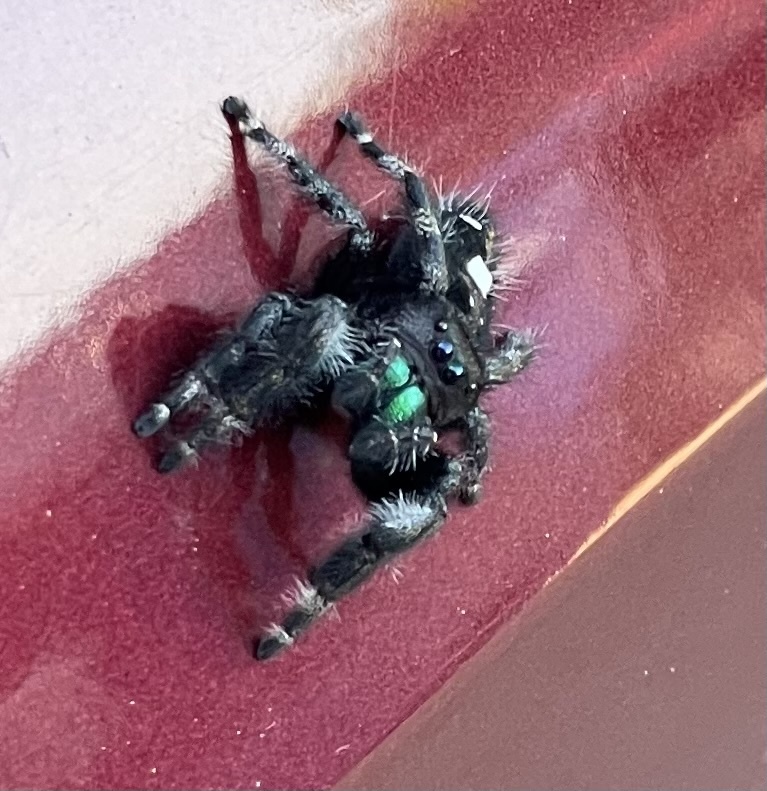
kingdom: Animalia
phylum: Arthropoda
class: Arachnida
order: Araneae
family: Salticidae
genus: Phidippus
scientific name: Phidippus audax
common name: Bold jumper
